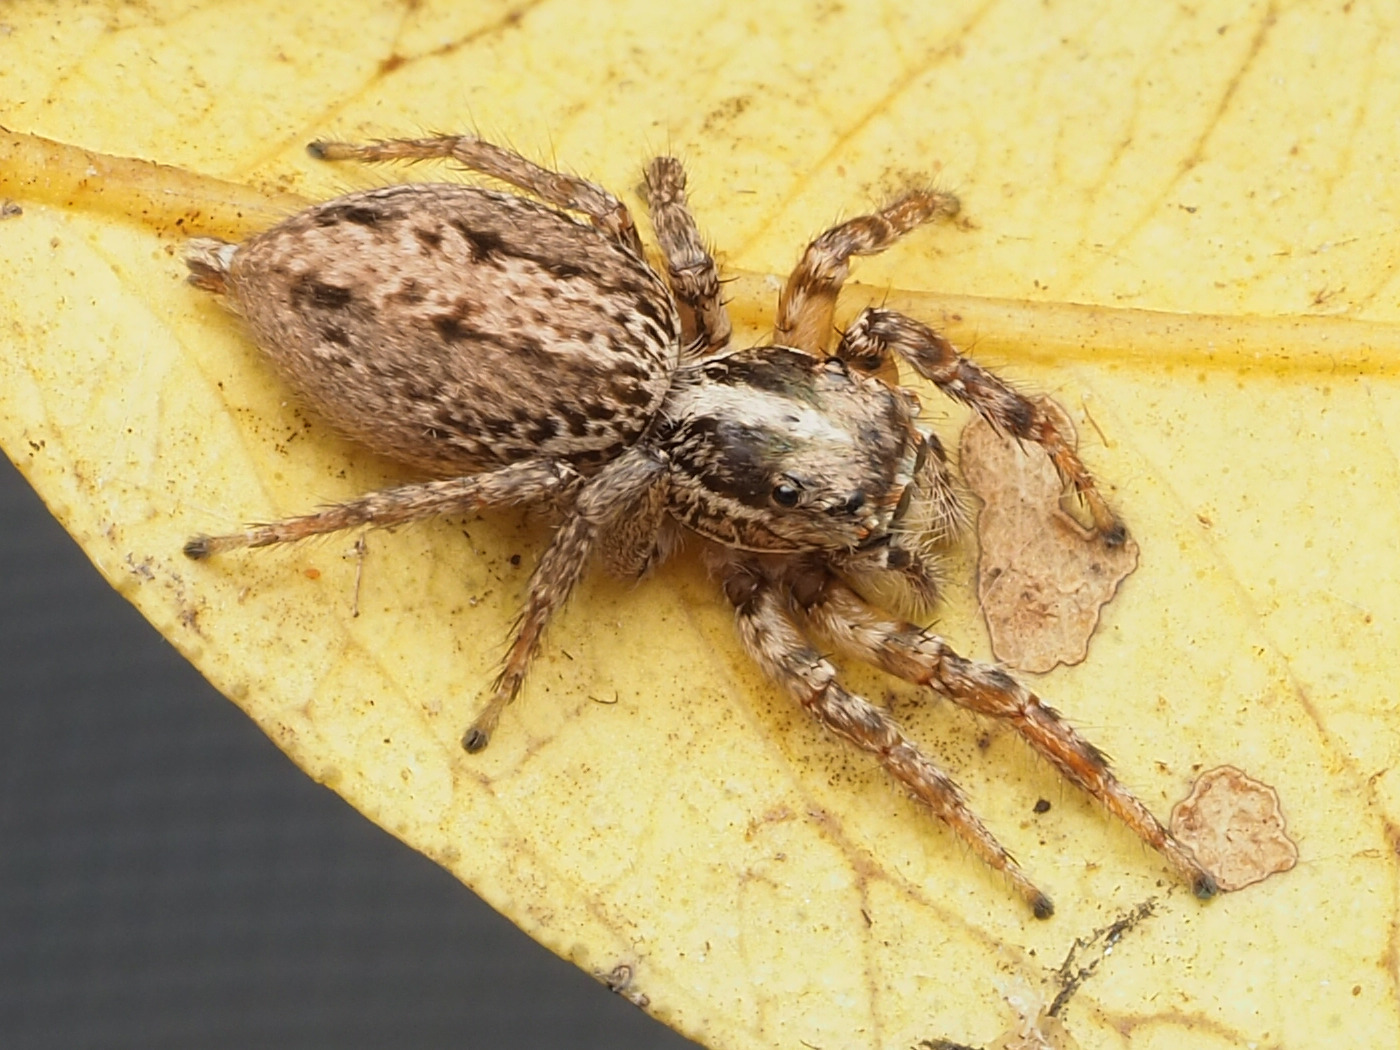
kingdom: Animalia
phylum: Arthropoda
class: Arachnida
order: Araneae
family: Salticidae
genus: Leptofreya
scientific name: Leptofreya ambigua
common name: Jumping spider
